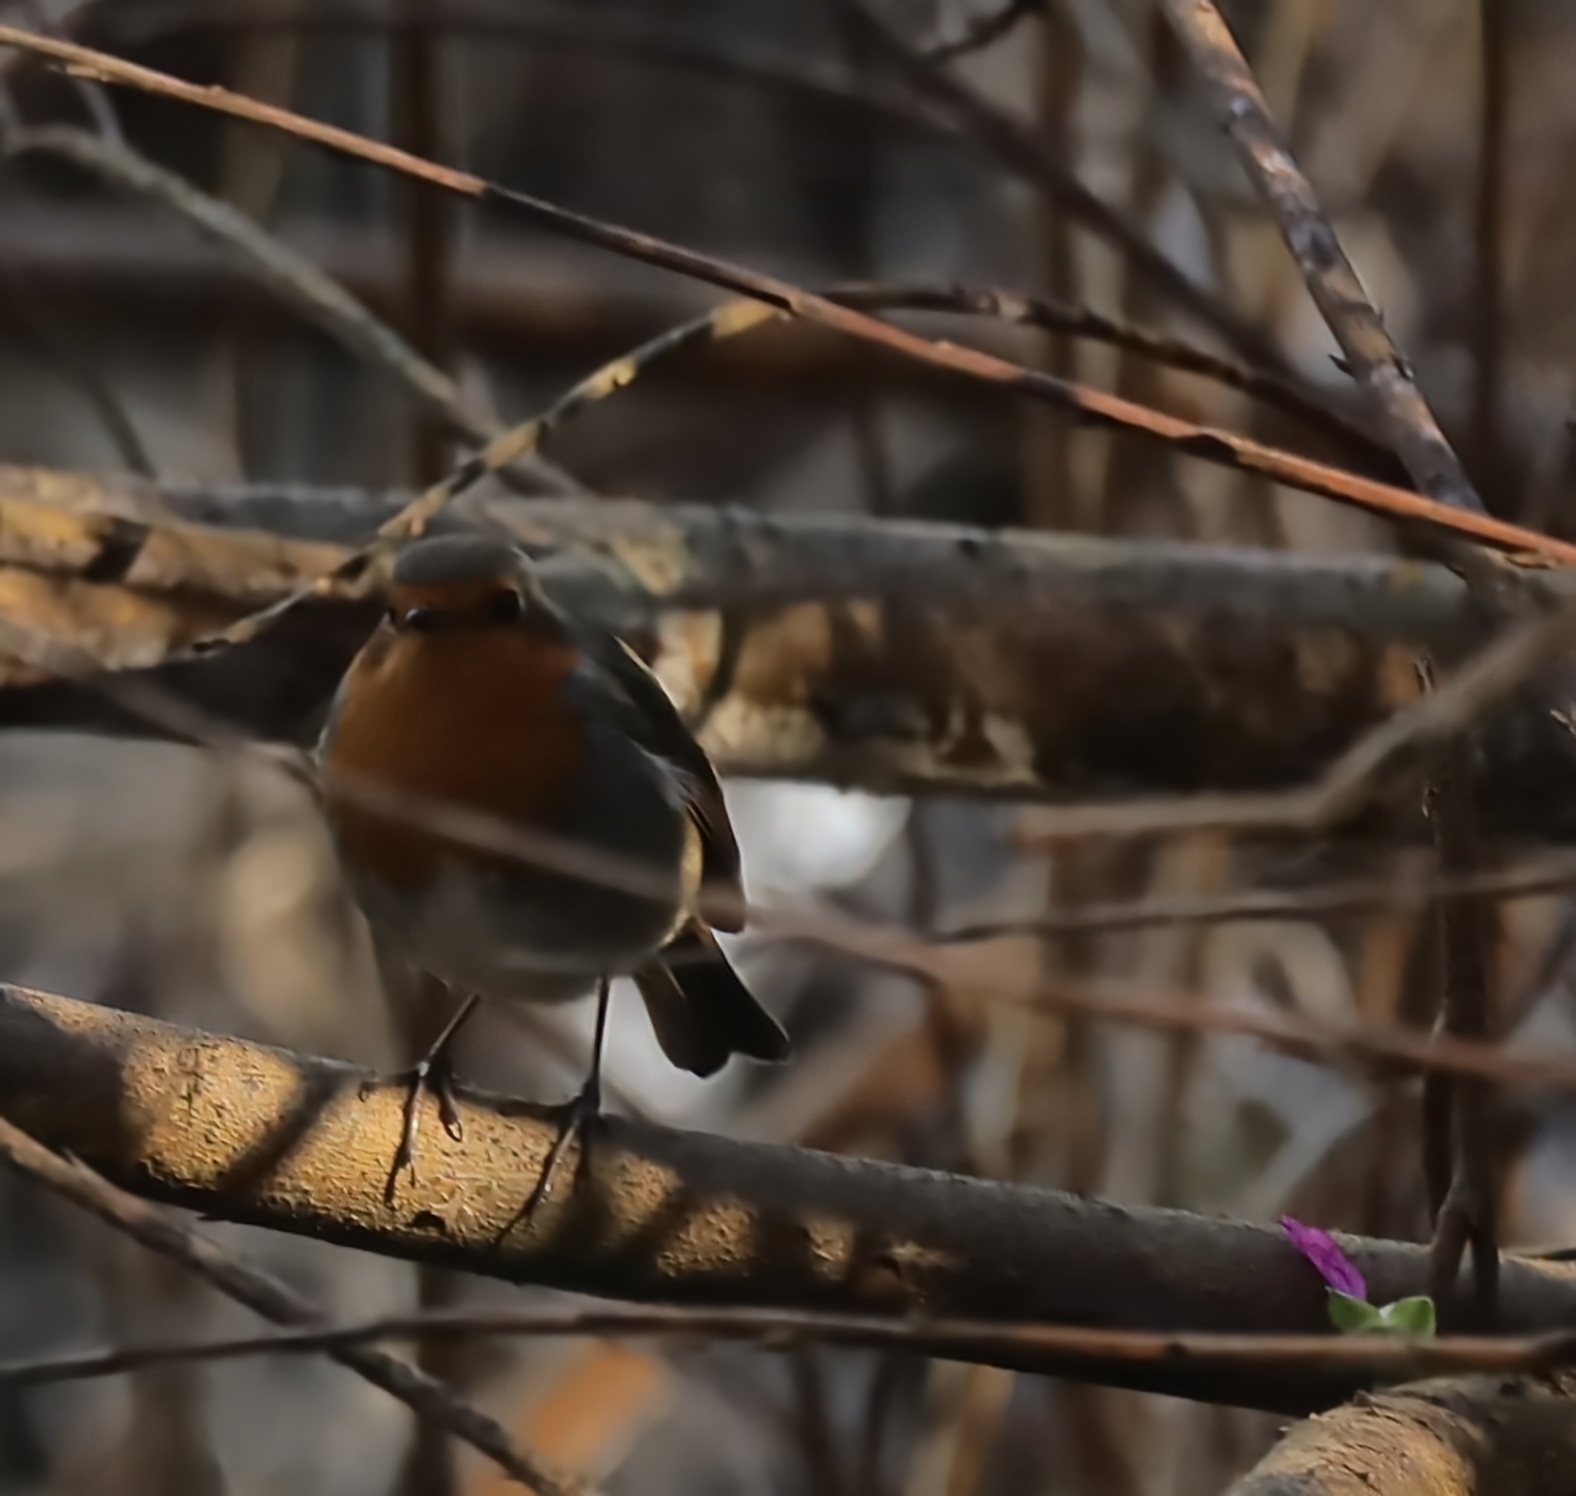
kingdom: Animalia
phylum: Chordata
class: Aves
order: Passeriformes
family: Muscicapidae
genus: Erithacus
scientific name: Erithacus rubecula
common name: European robin
